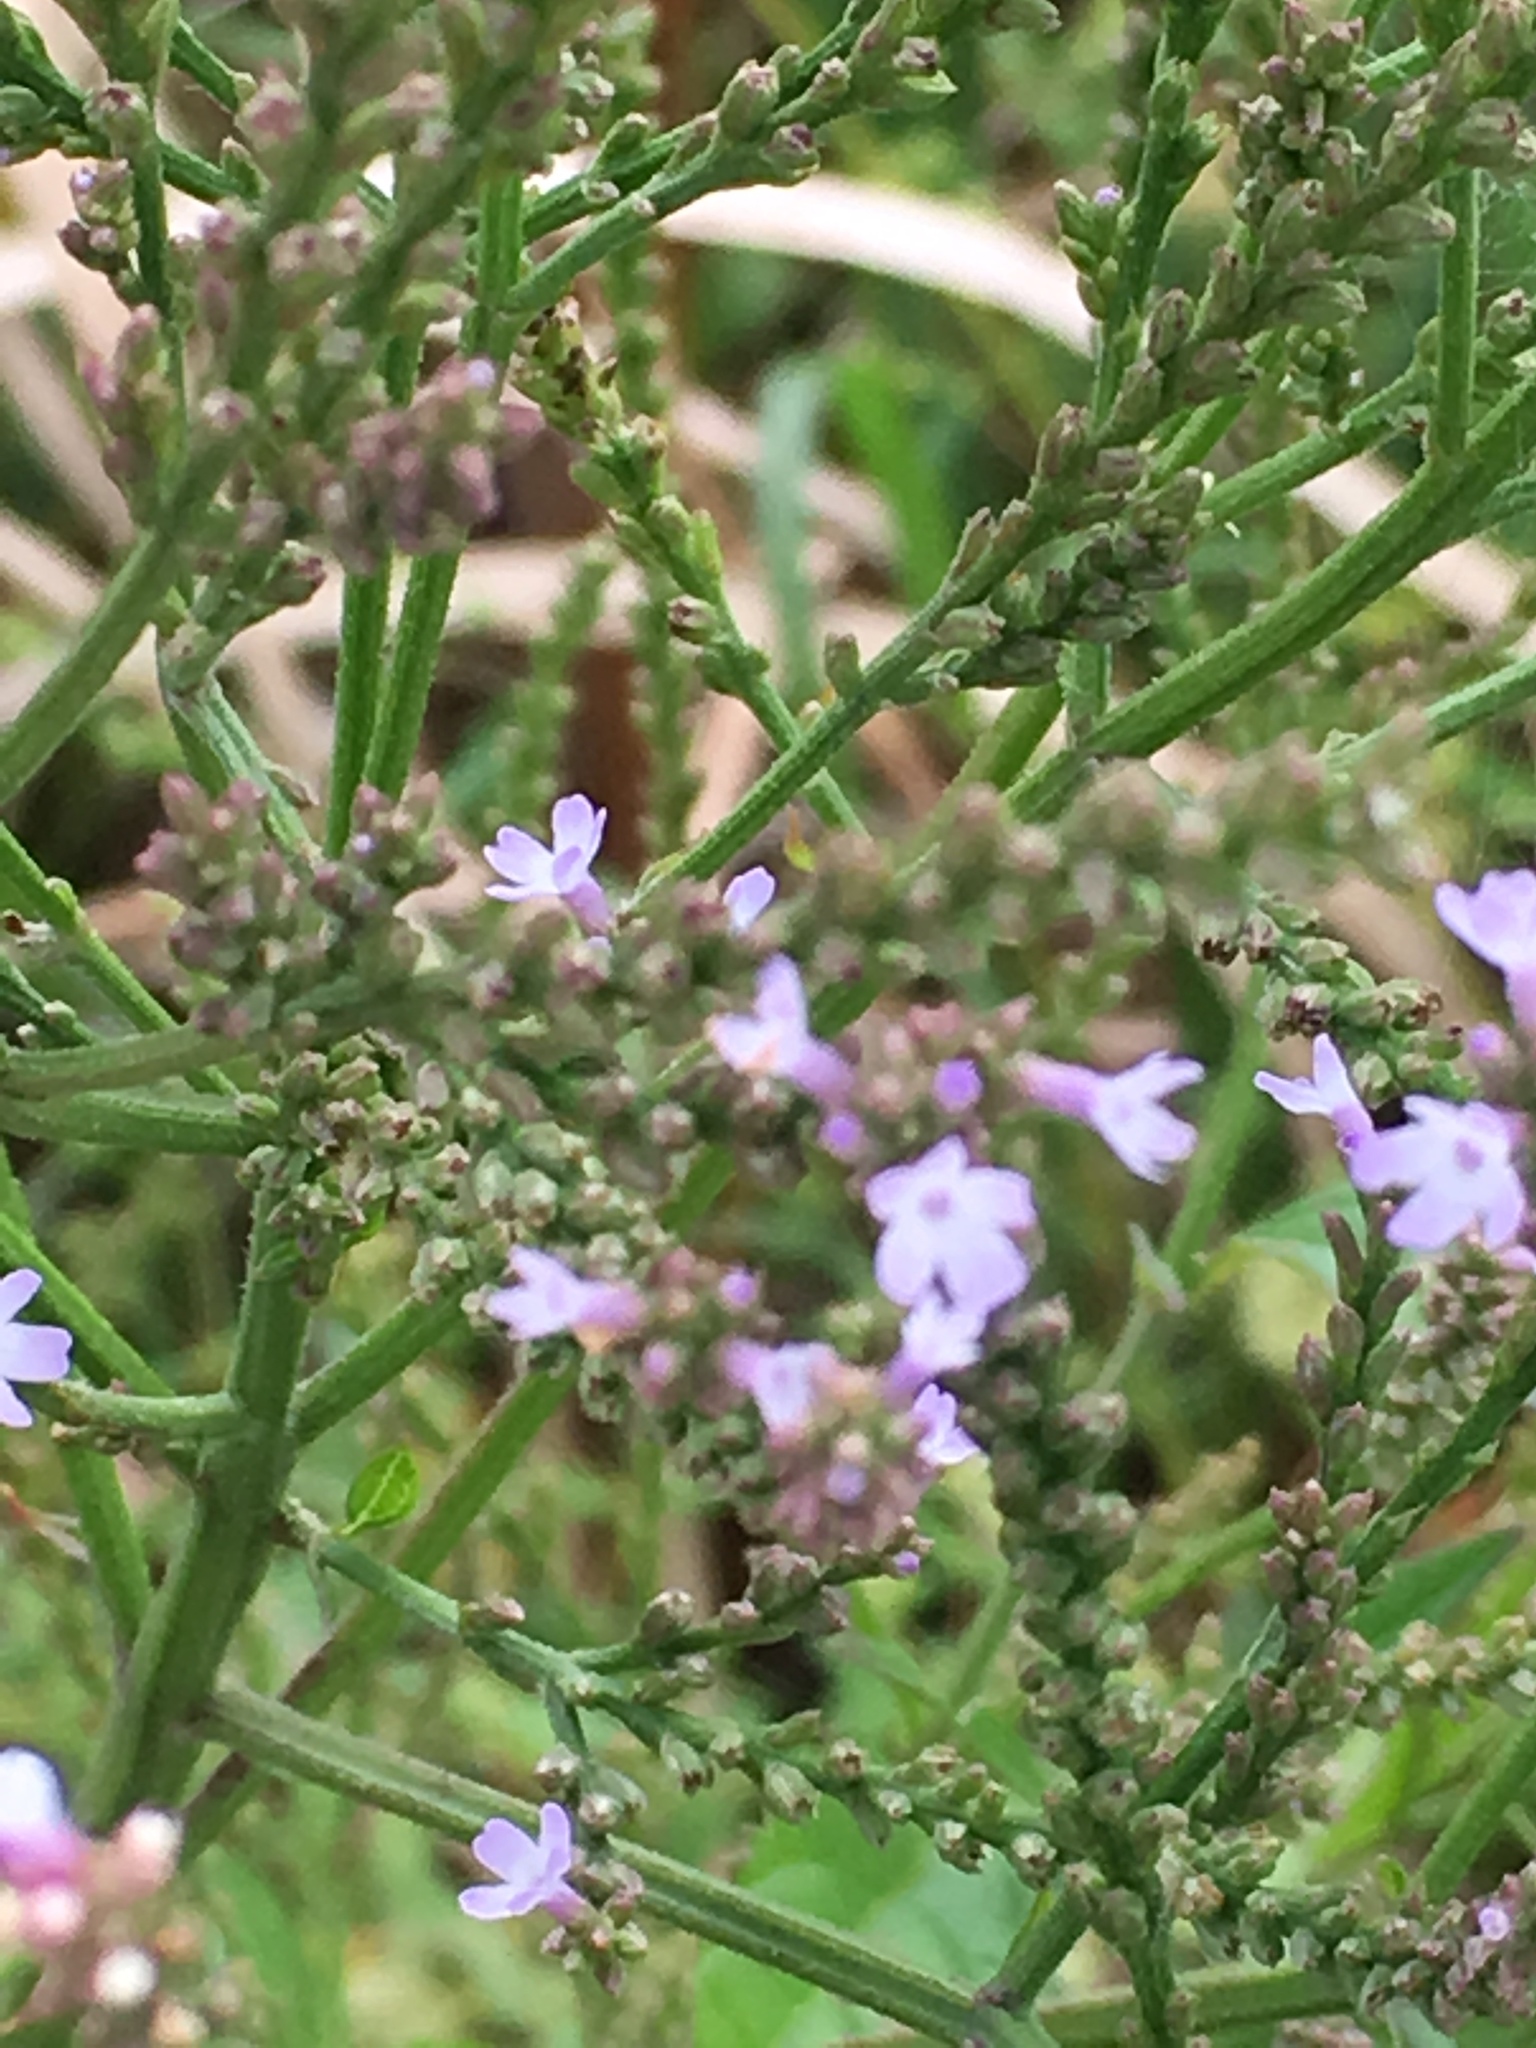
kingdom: Plantae
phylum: Tracheophyta
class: Magnoliopsida
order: Lamiales
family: Verbenaceae
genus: Verbena
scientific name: Verbena urticifolia
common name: Nettle-leaved vervain
